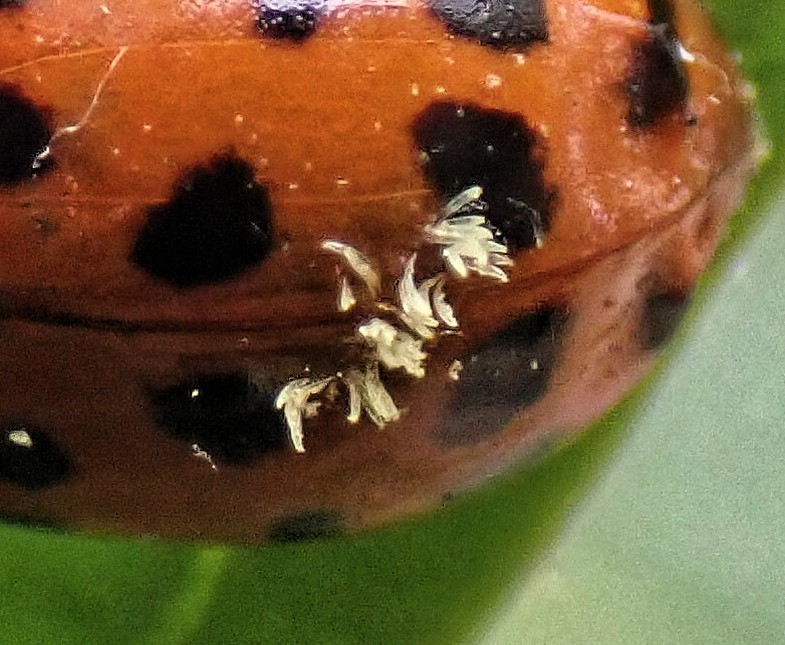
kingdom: Fungi
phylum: Ascomycota
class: Laboulbeniomycetes
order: Laboulbeniales
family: Laboulbeniaceae
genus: Hesperomyces
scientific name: Hesperomyces harmoniae
